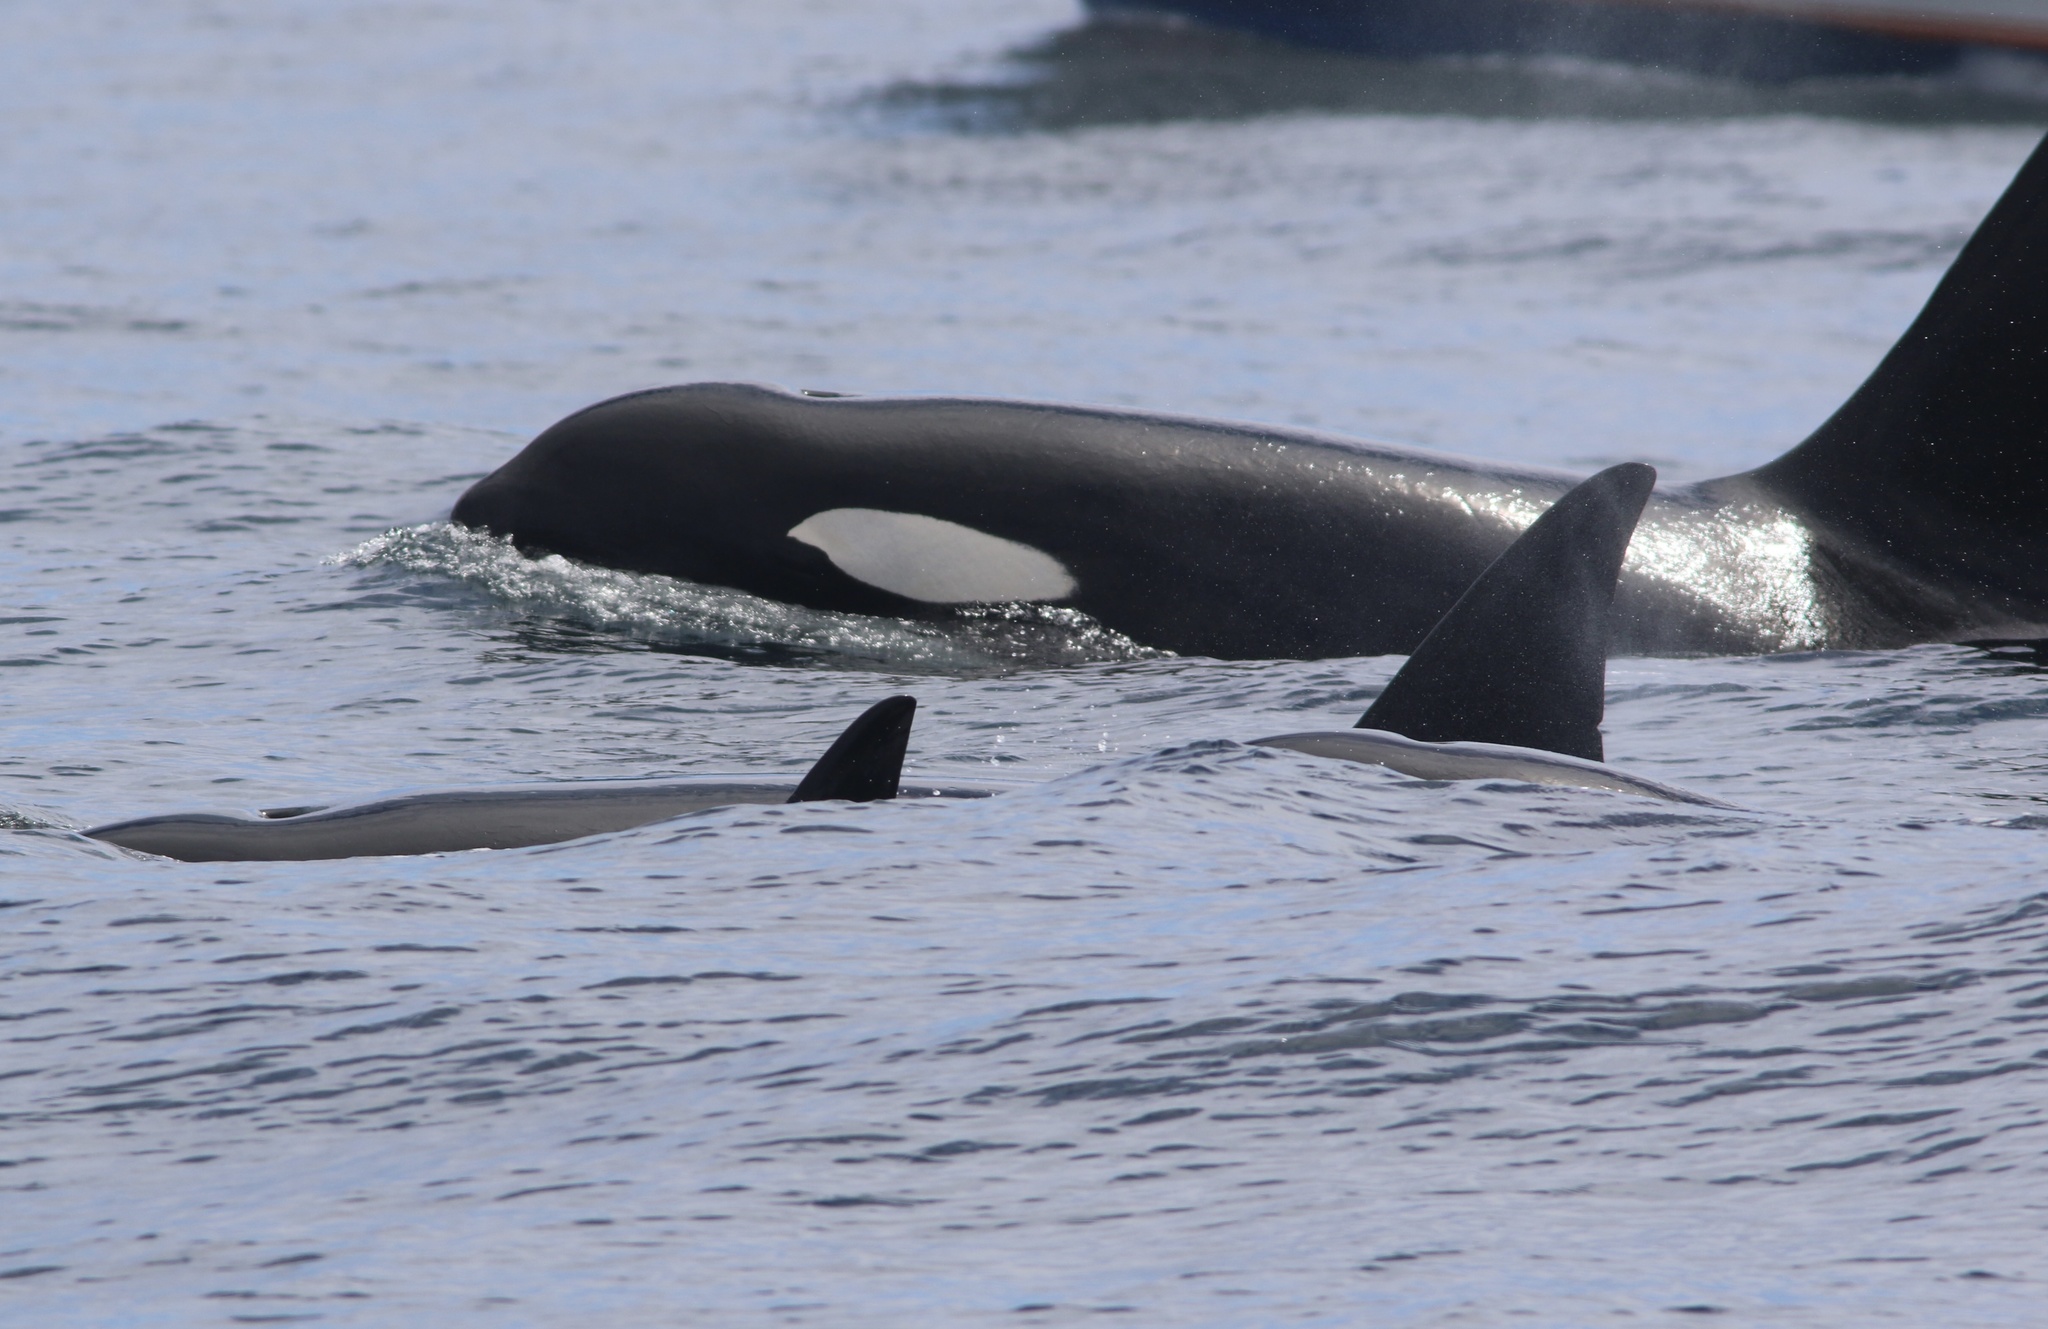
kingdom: Animalia
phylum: Chordata
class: Mammalia
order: Cetacea
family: Delphinidae
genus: Orcinus
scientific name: Orcinus orca
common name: Killer whale
